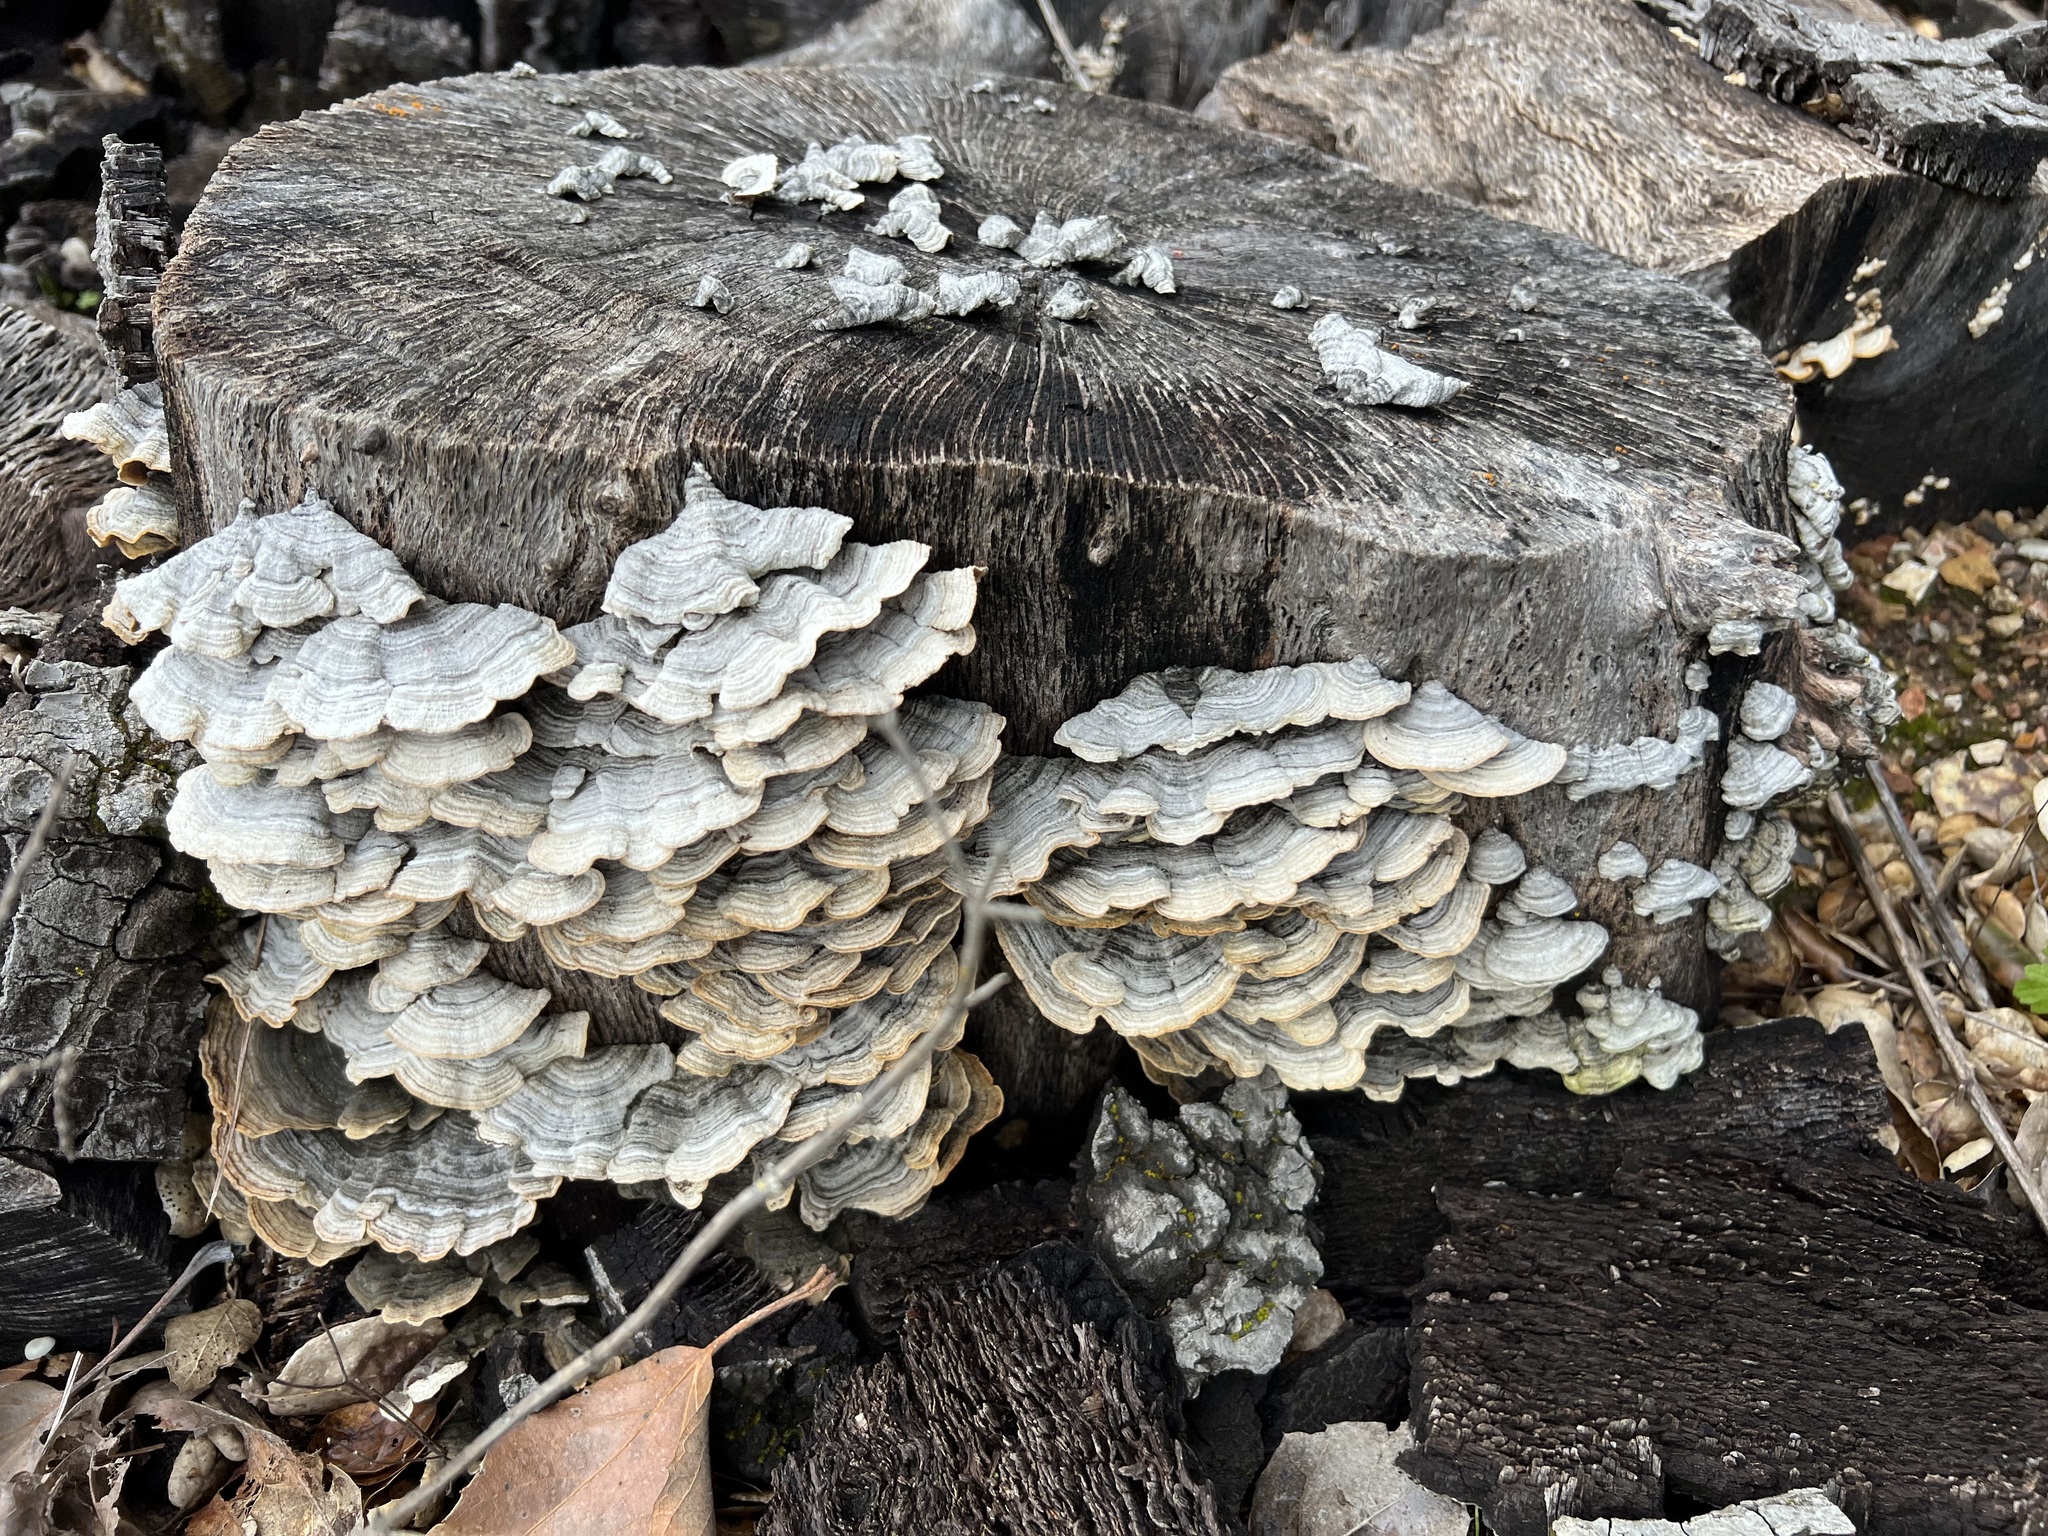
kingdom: Fungi
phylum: Basidiomycota
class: Agaricomycetes
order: Polyporales
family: Polyporaceae
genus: Trametes
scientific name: Trametes versicolor
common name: Turkeytail
